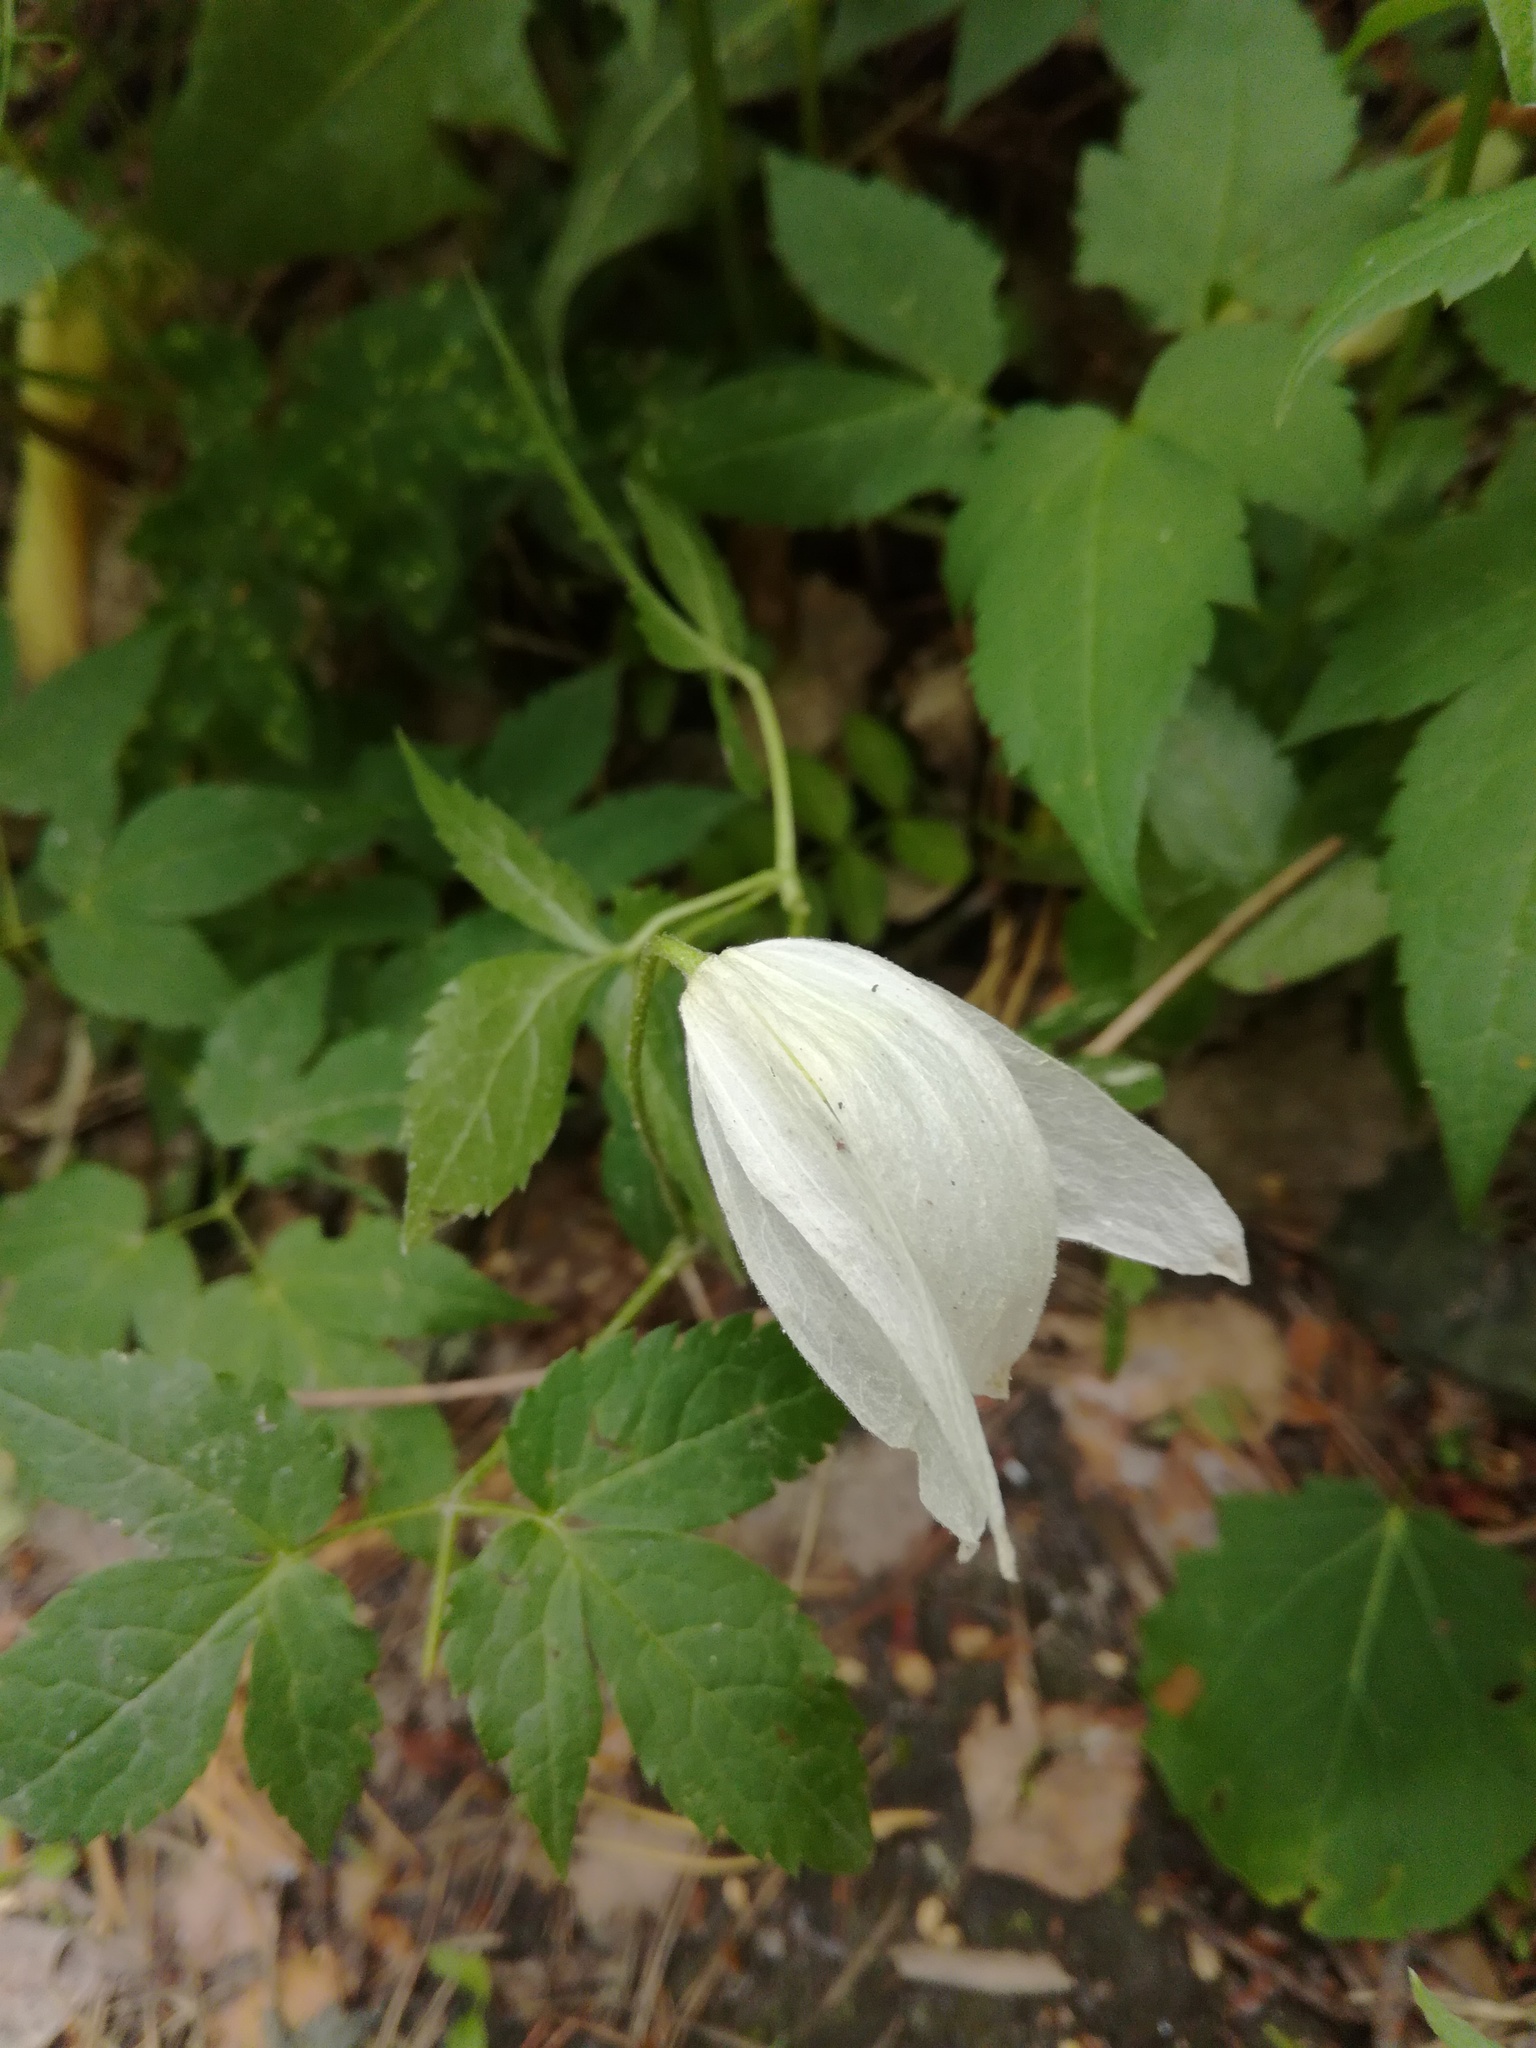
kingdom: Plantae
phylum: Tracheophyta
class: Magnoliopsida
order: Ranunculales
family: Ranunculaceae
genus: Clematis
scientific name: Clematis sibirica
